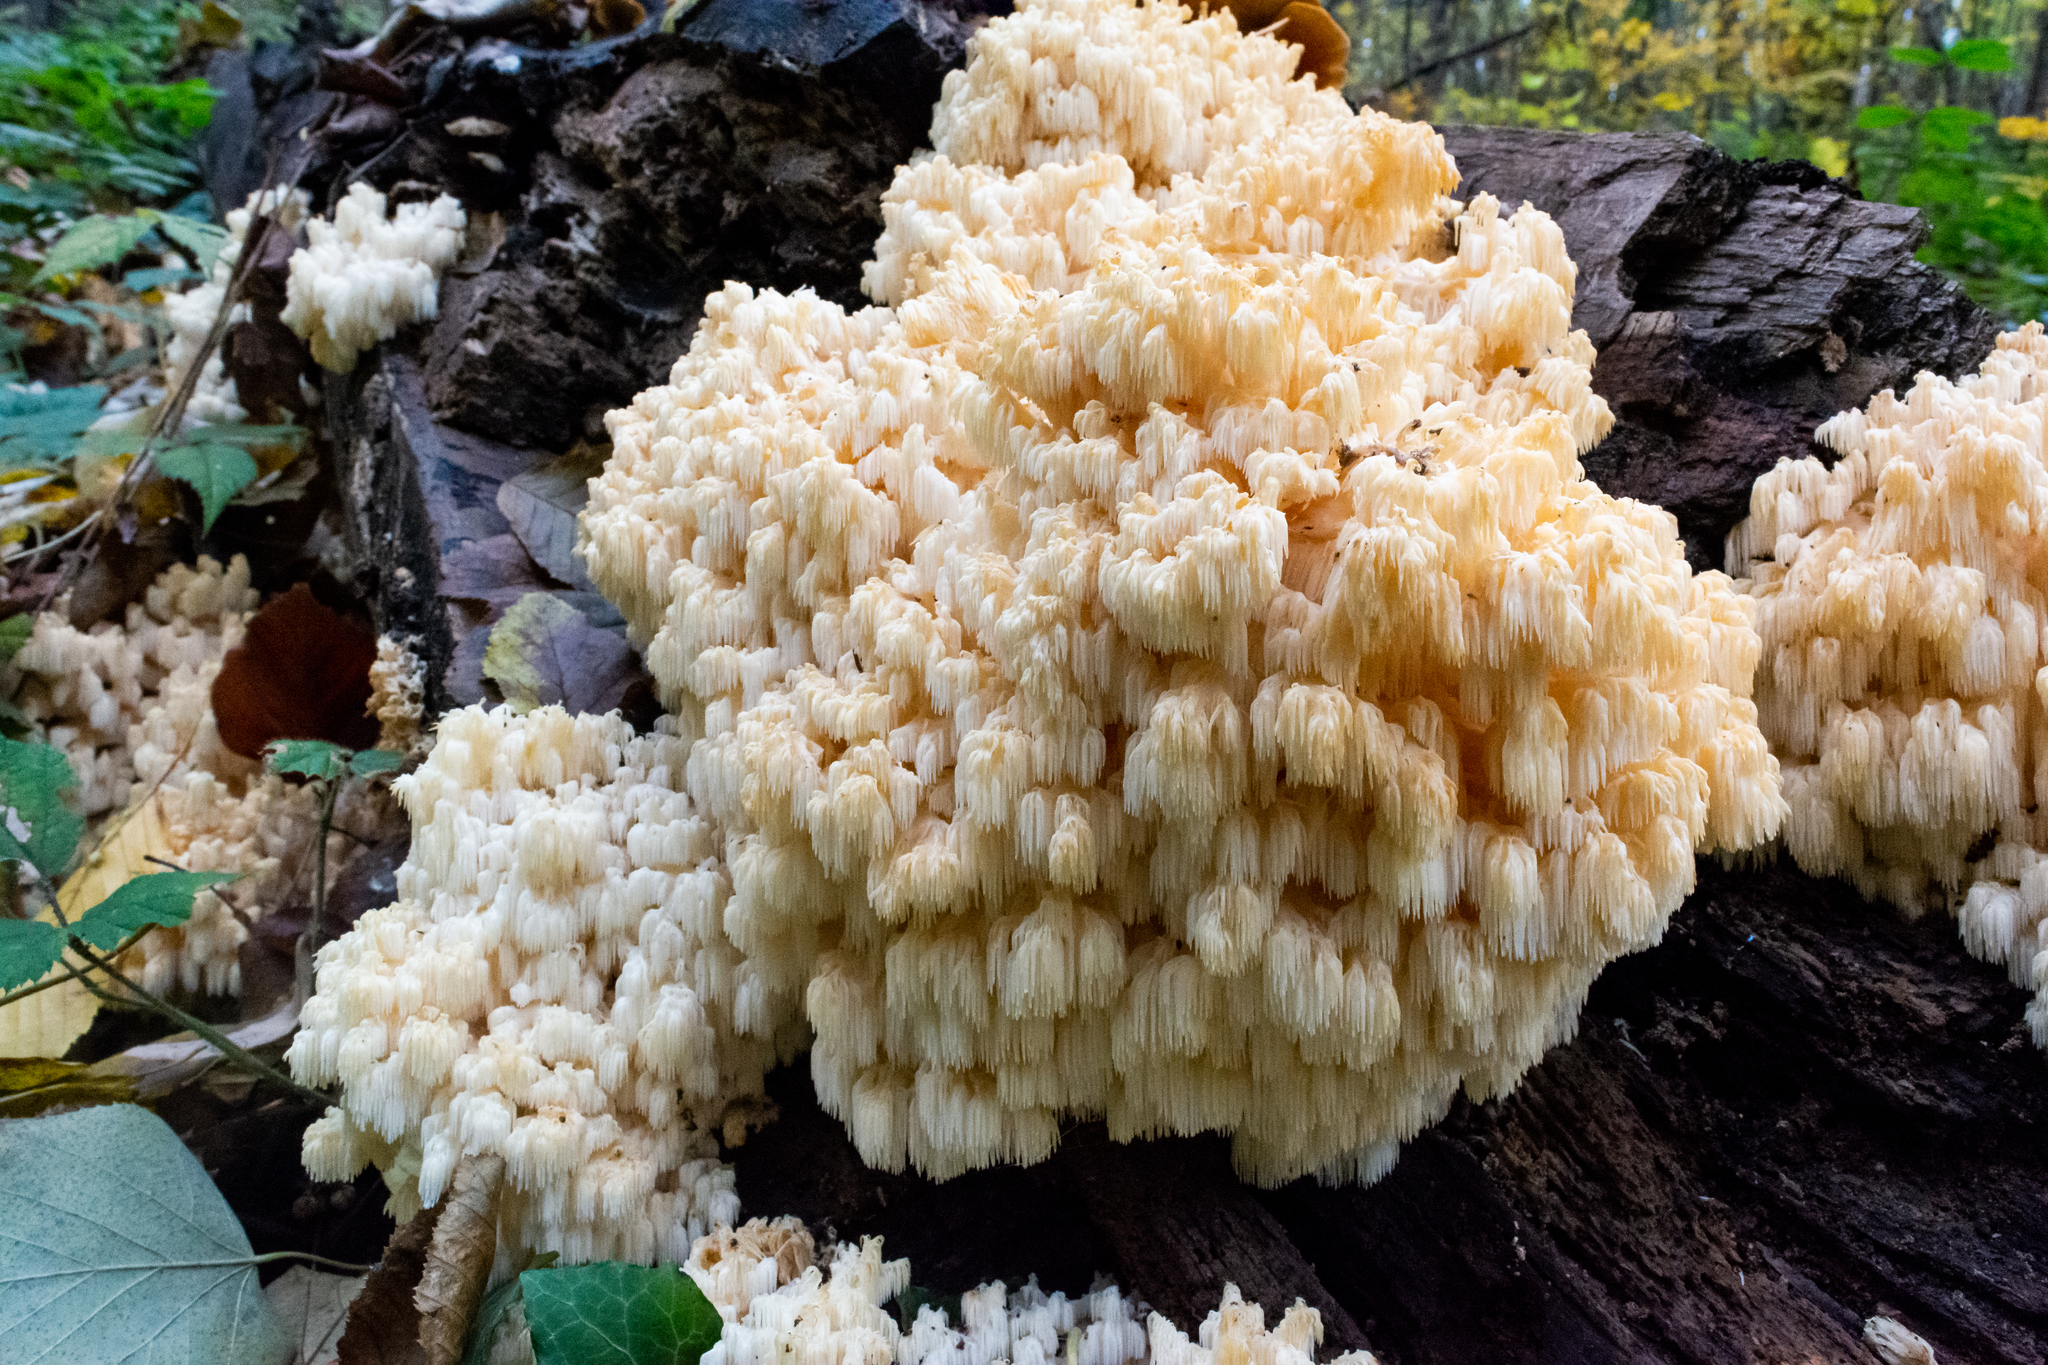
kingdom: Fungi
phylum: Basidiomycota
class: Agaricomycetes
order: Russulales
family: Hericiaceae
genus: Hericium
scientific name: Hericium coralloides
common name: Coral tooth
